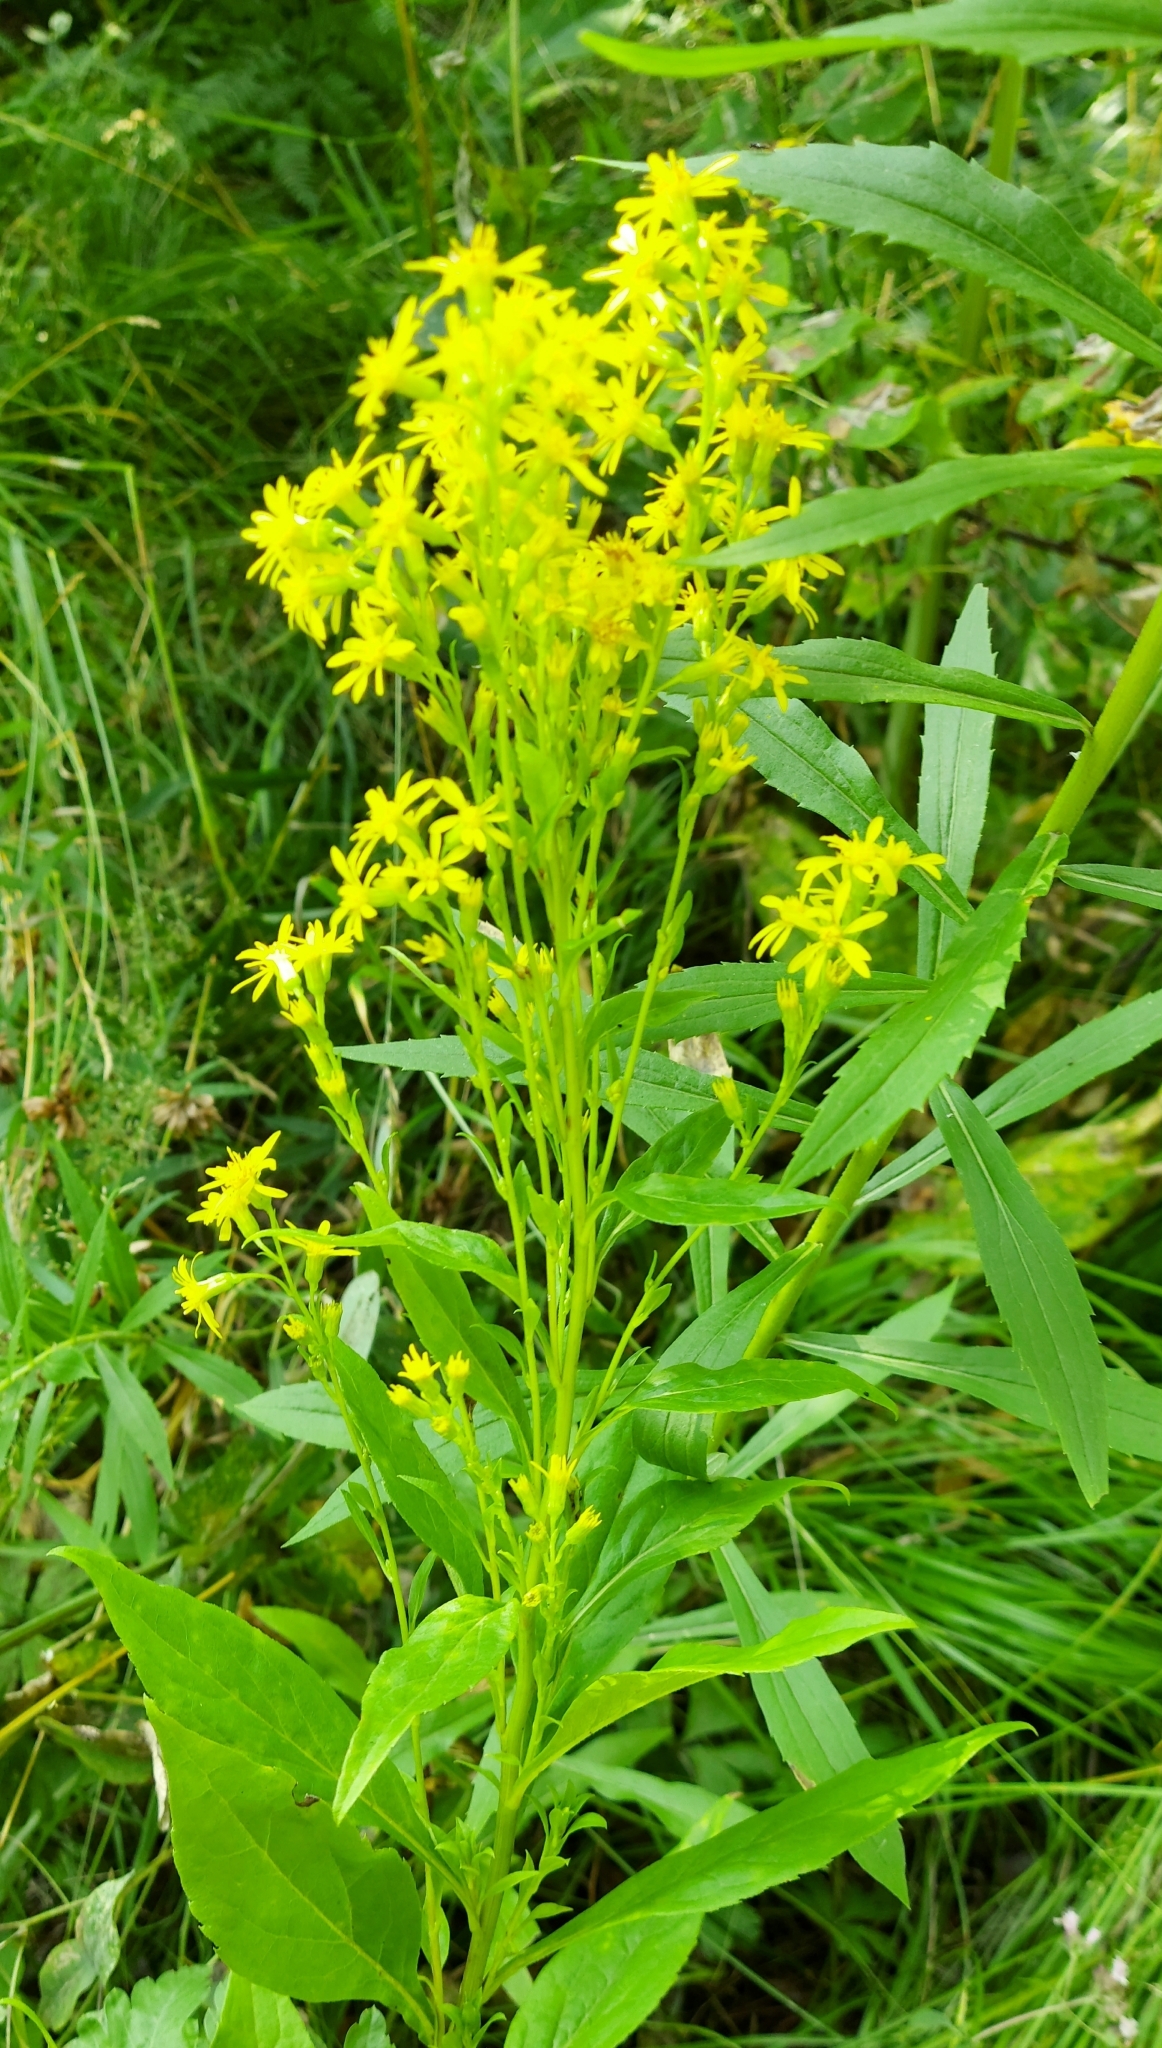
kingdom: Plantae
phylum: Tracheophyta
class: Magnoliopsida
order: Asterales
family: Asteraceae
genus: Solidago
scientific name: Solidago virgaurea
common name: Goldenrod
